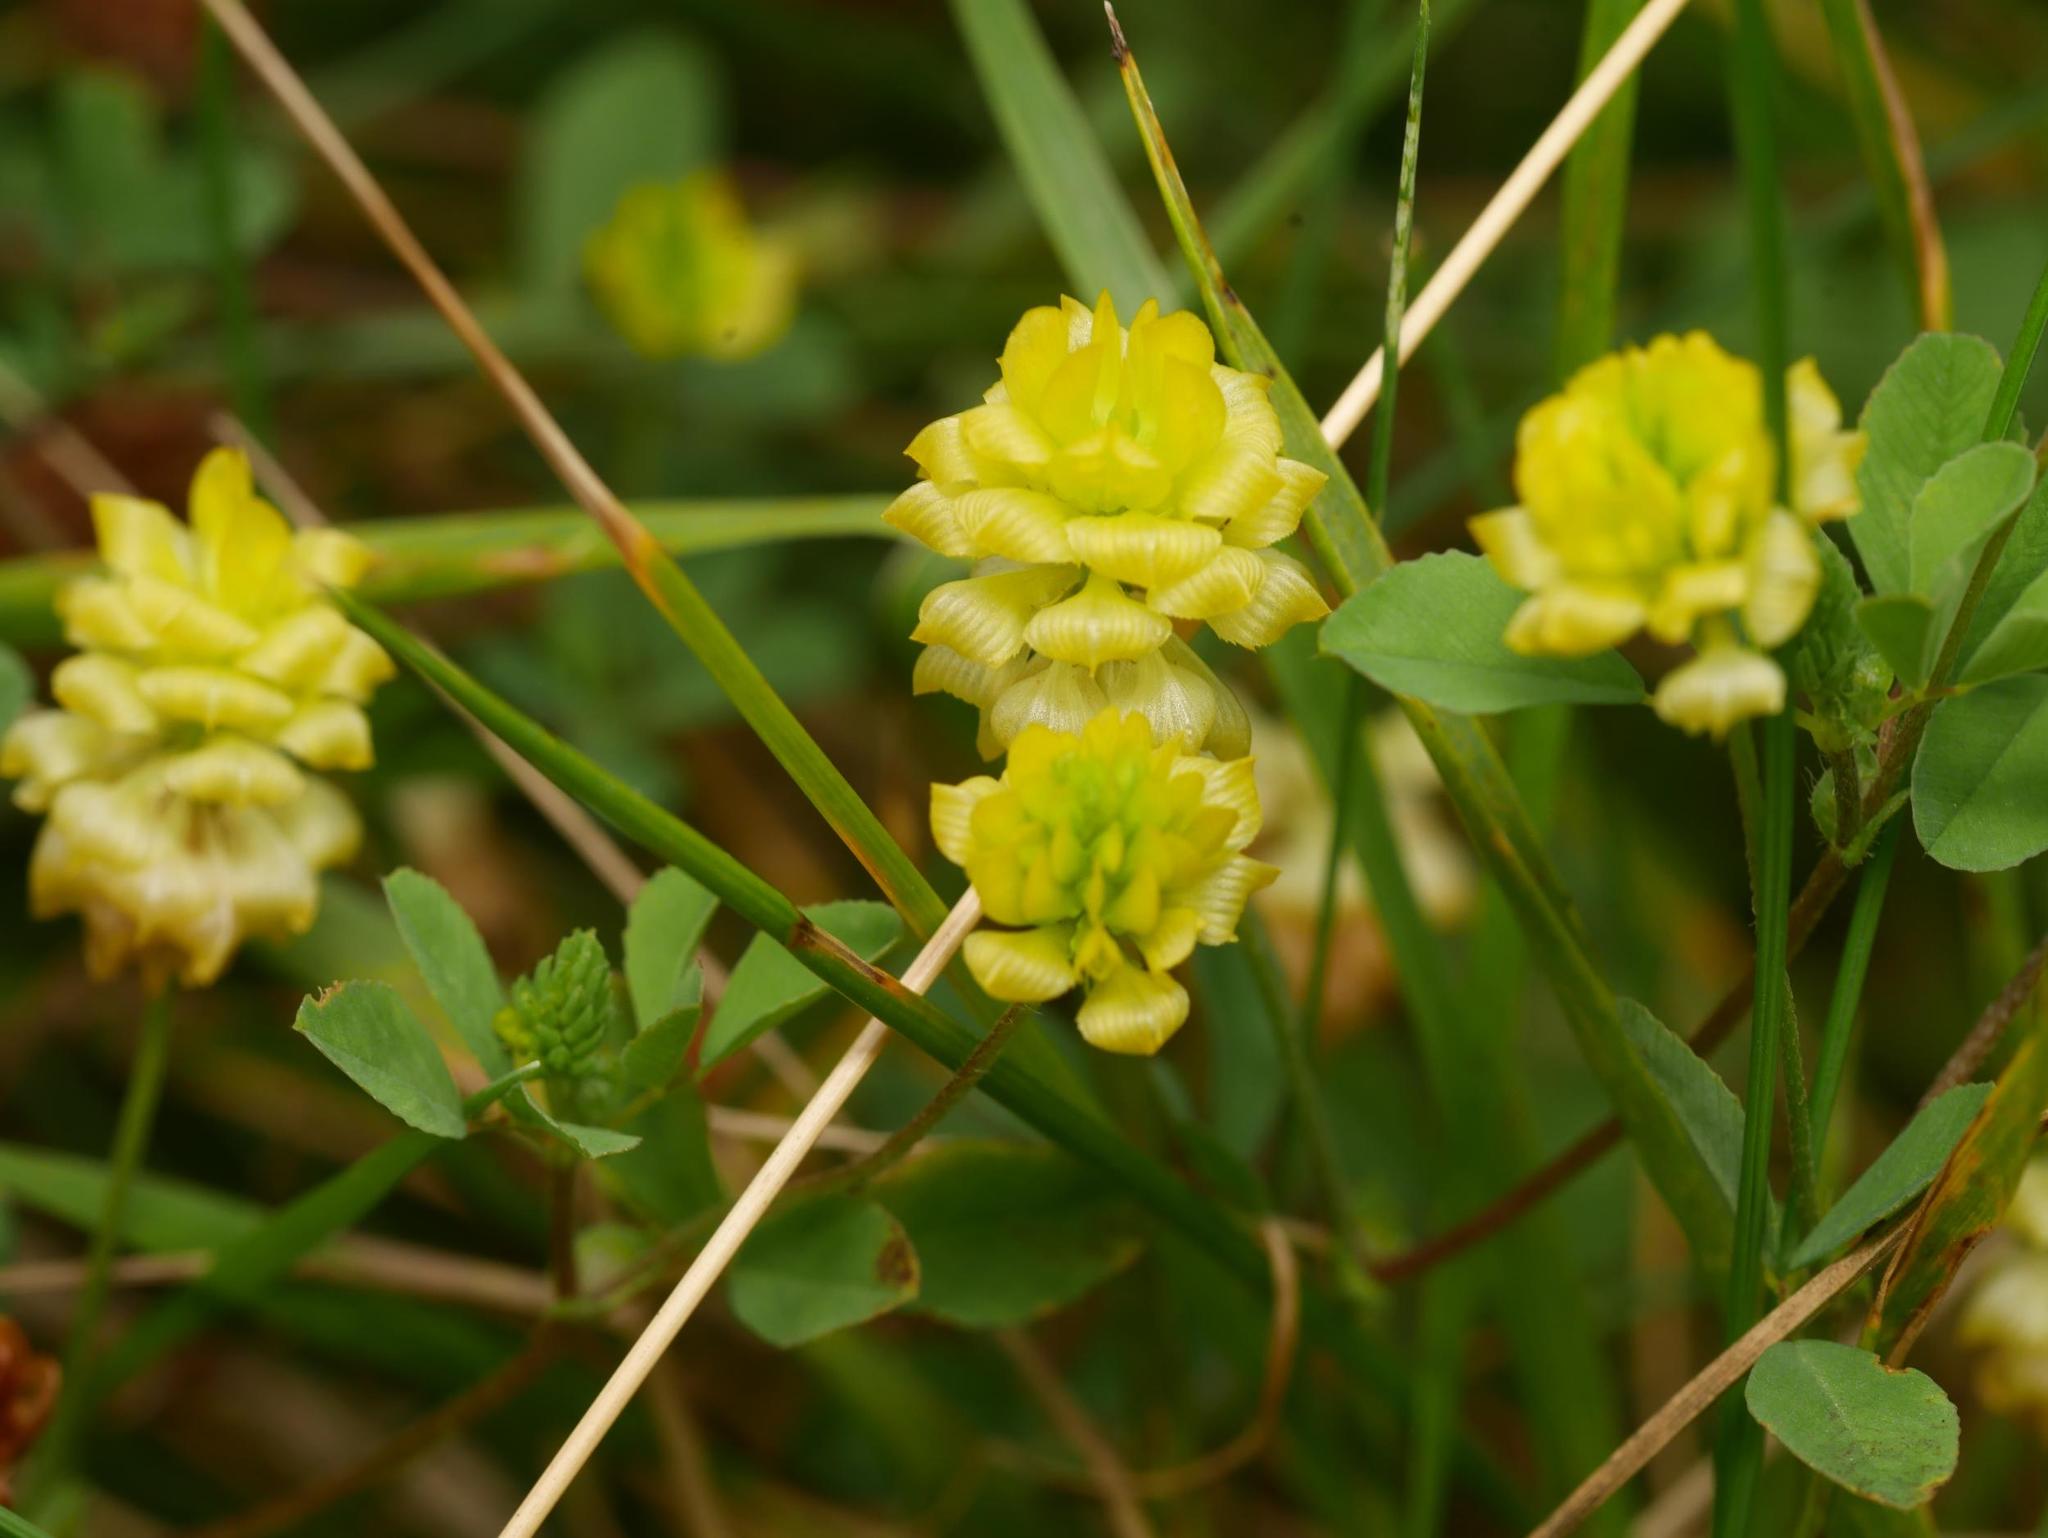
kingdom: Plantae
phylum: Tracheophyta
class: Magnoliopsida
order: Fabales
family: Fabaceae
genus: Trifolium
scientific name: Trifolium campestre
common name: Field clover
